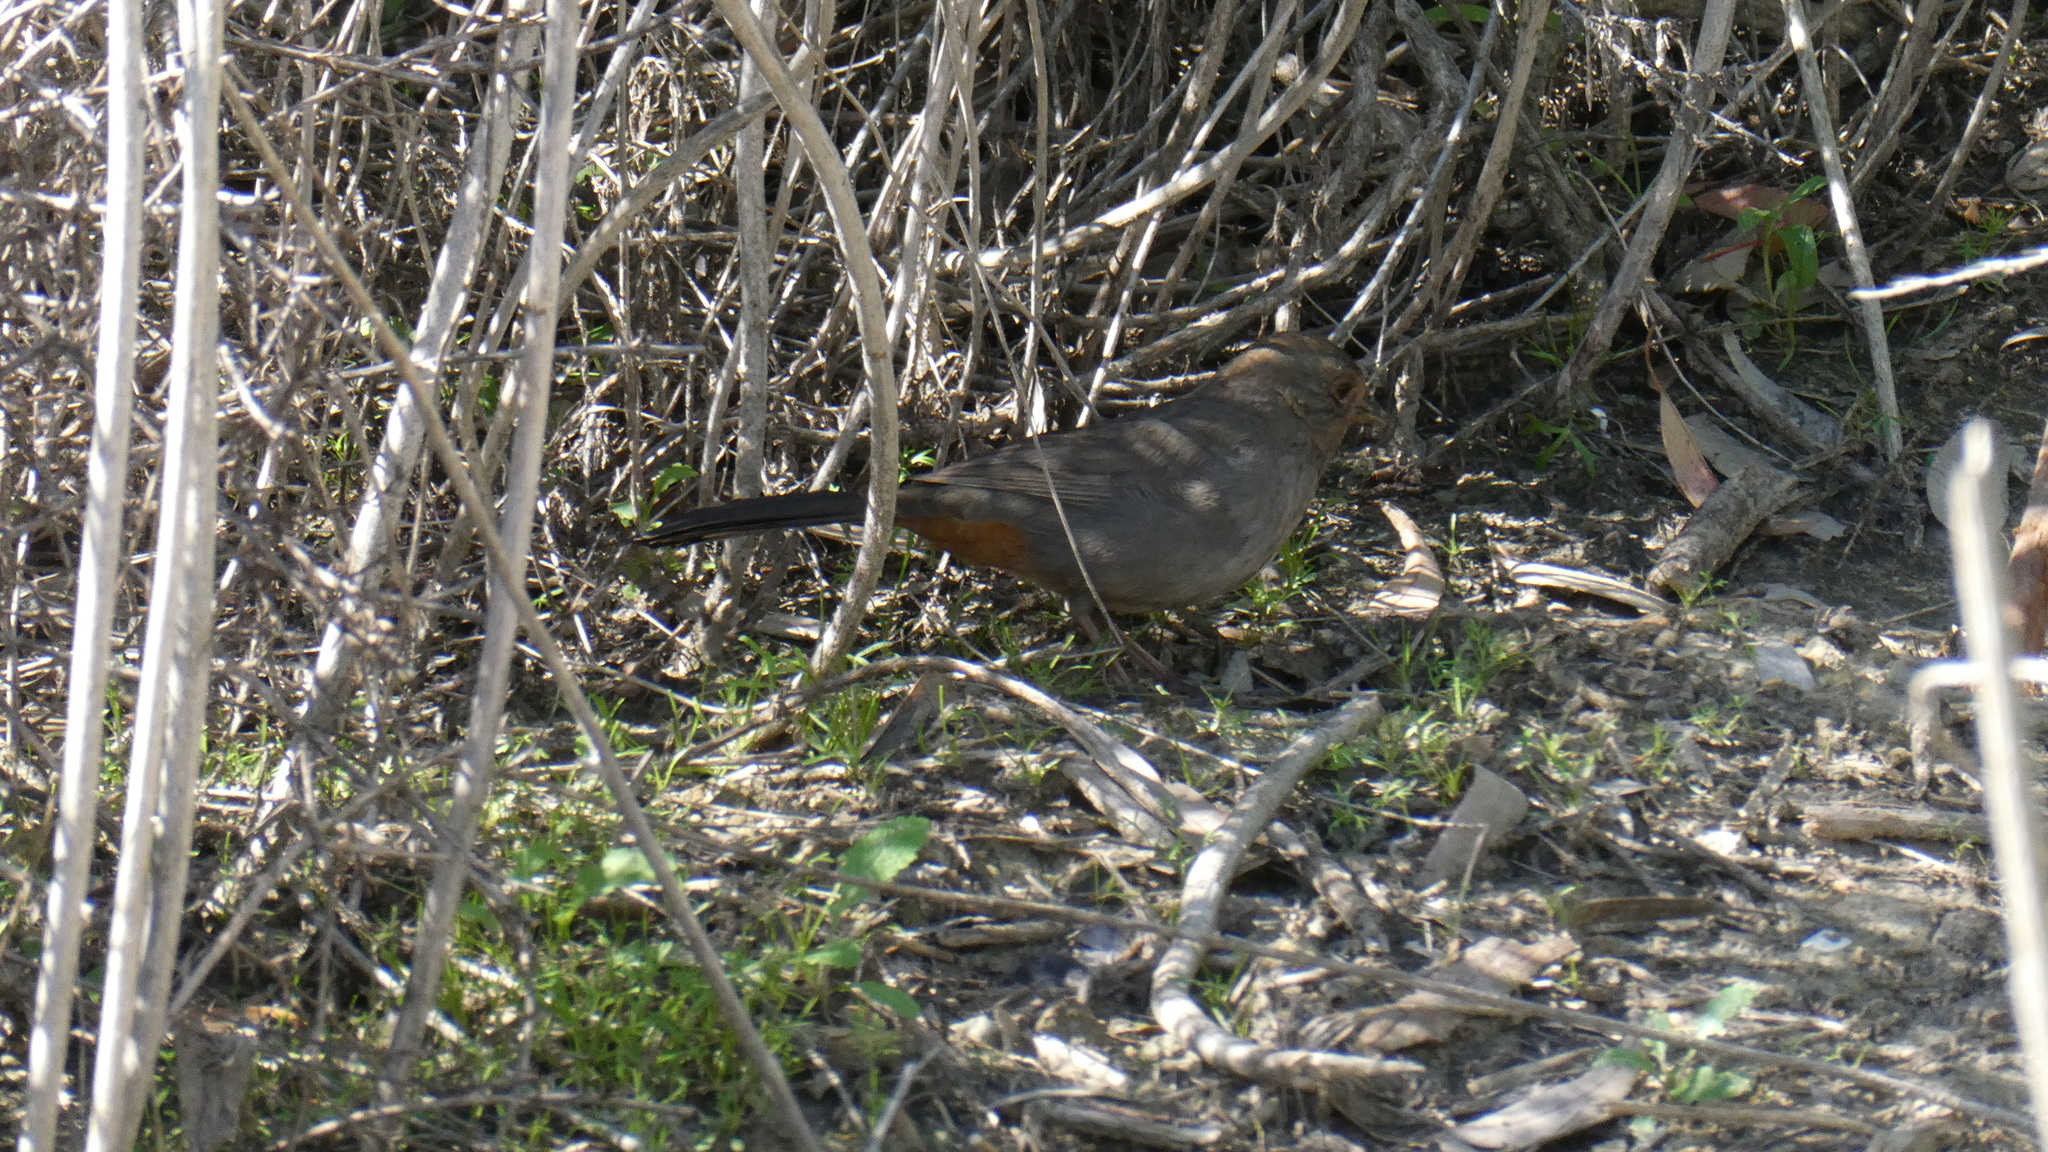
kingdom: Animalia
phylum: Chordata
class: Aves
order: Passeriformes
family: Passerellidae
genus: Melozone
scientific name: Melozone crissalis
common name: California towhee
